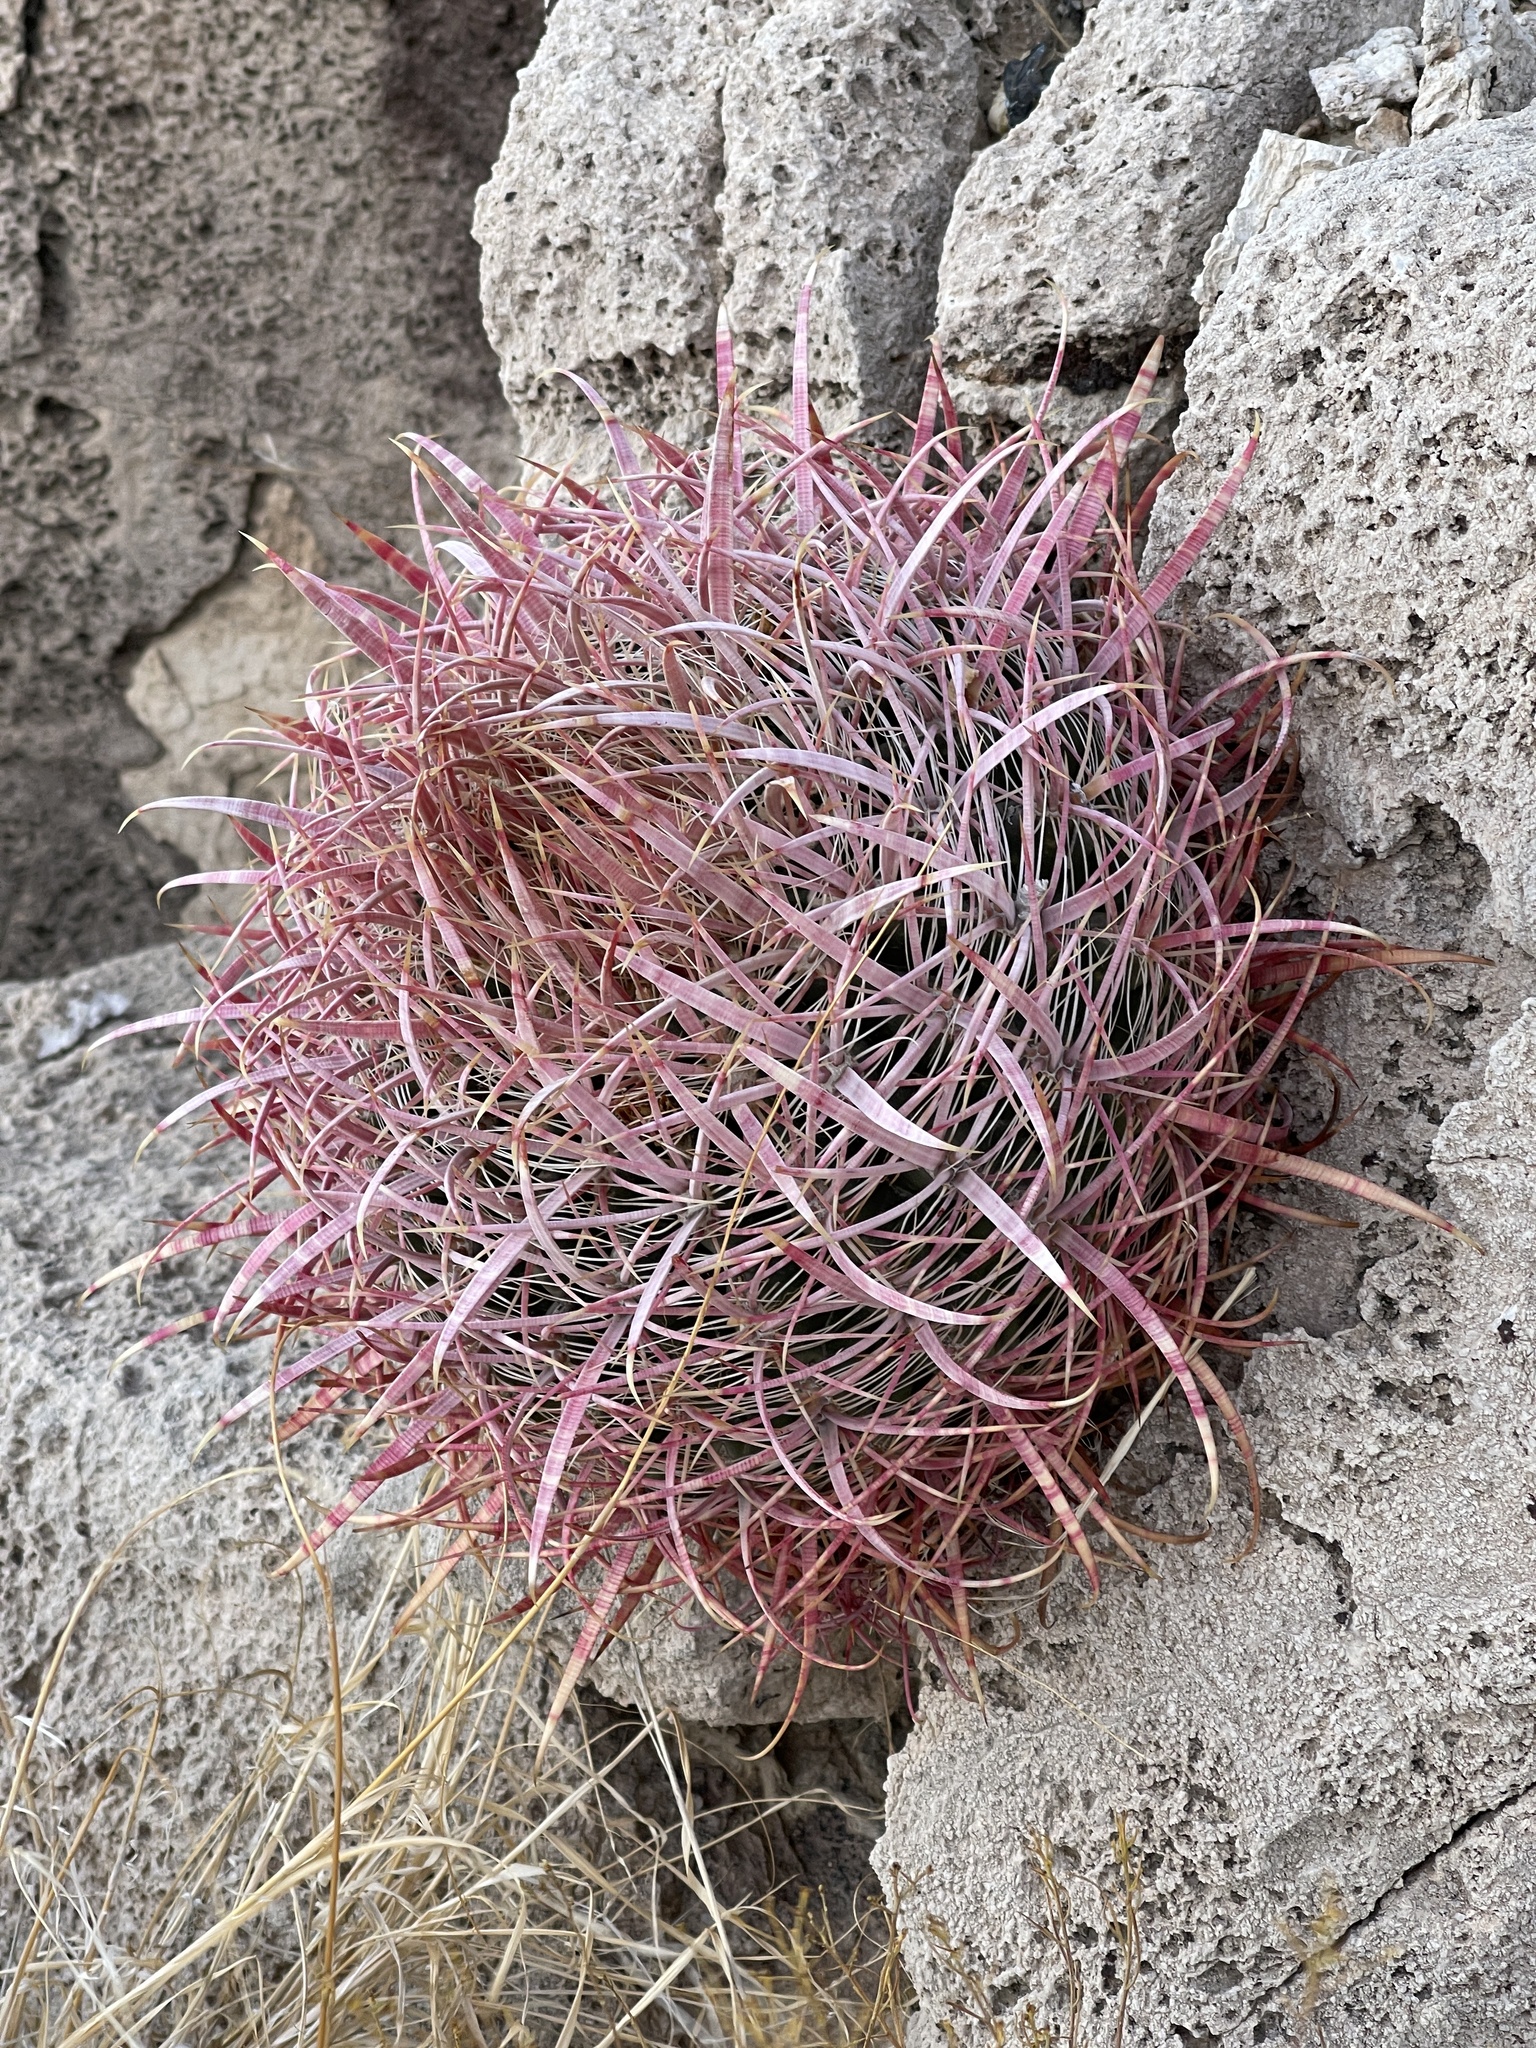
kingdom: Plantae
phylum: Tracheophyta
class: Magnoliopsida
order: Caryophyllales
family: Cactaceae
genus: Ferocactus
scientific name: Ferocactus cylindraceus
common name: California barrel cactus
